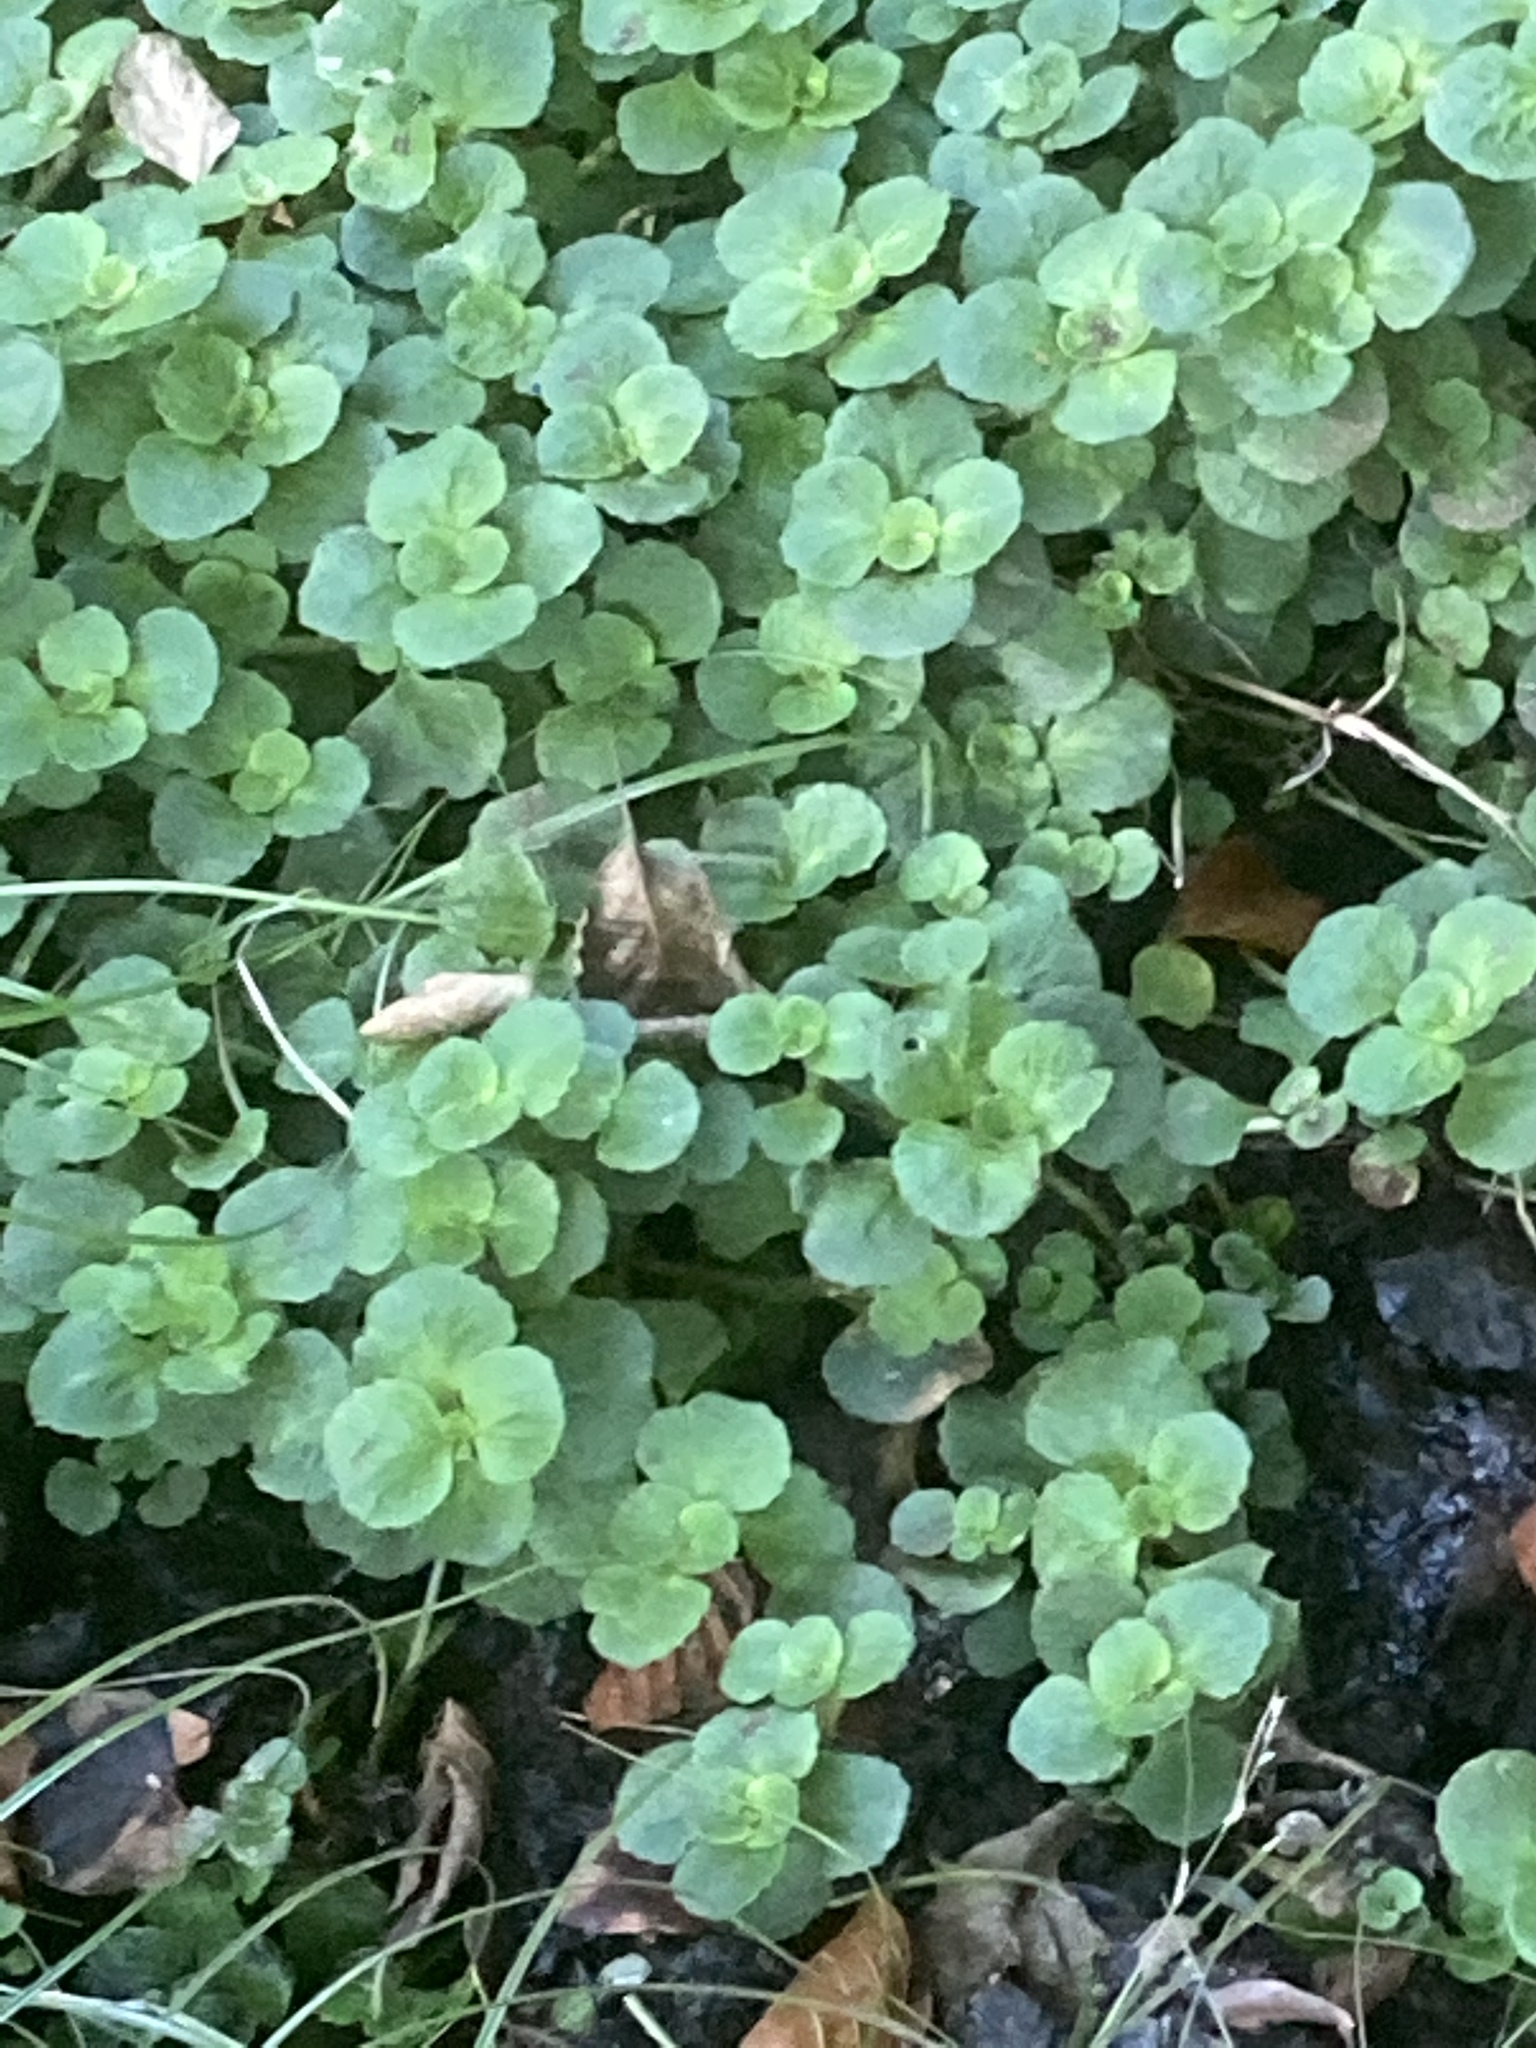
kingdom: Plantae
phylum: Tracheophyta
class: Magnoliopsida
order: Saxifragales
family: Saxifragaceae
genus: Chrysosplenium
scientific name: Chrysosplenium oppositifolium
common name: Opposite-leaved golden-saxifrage
